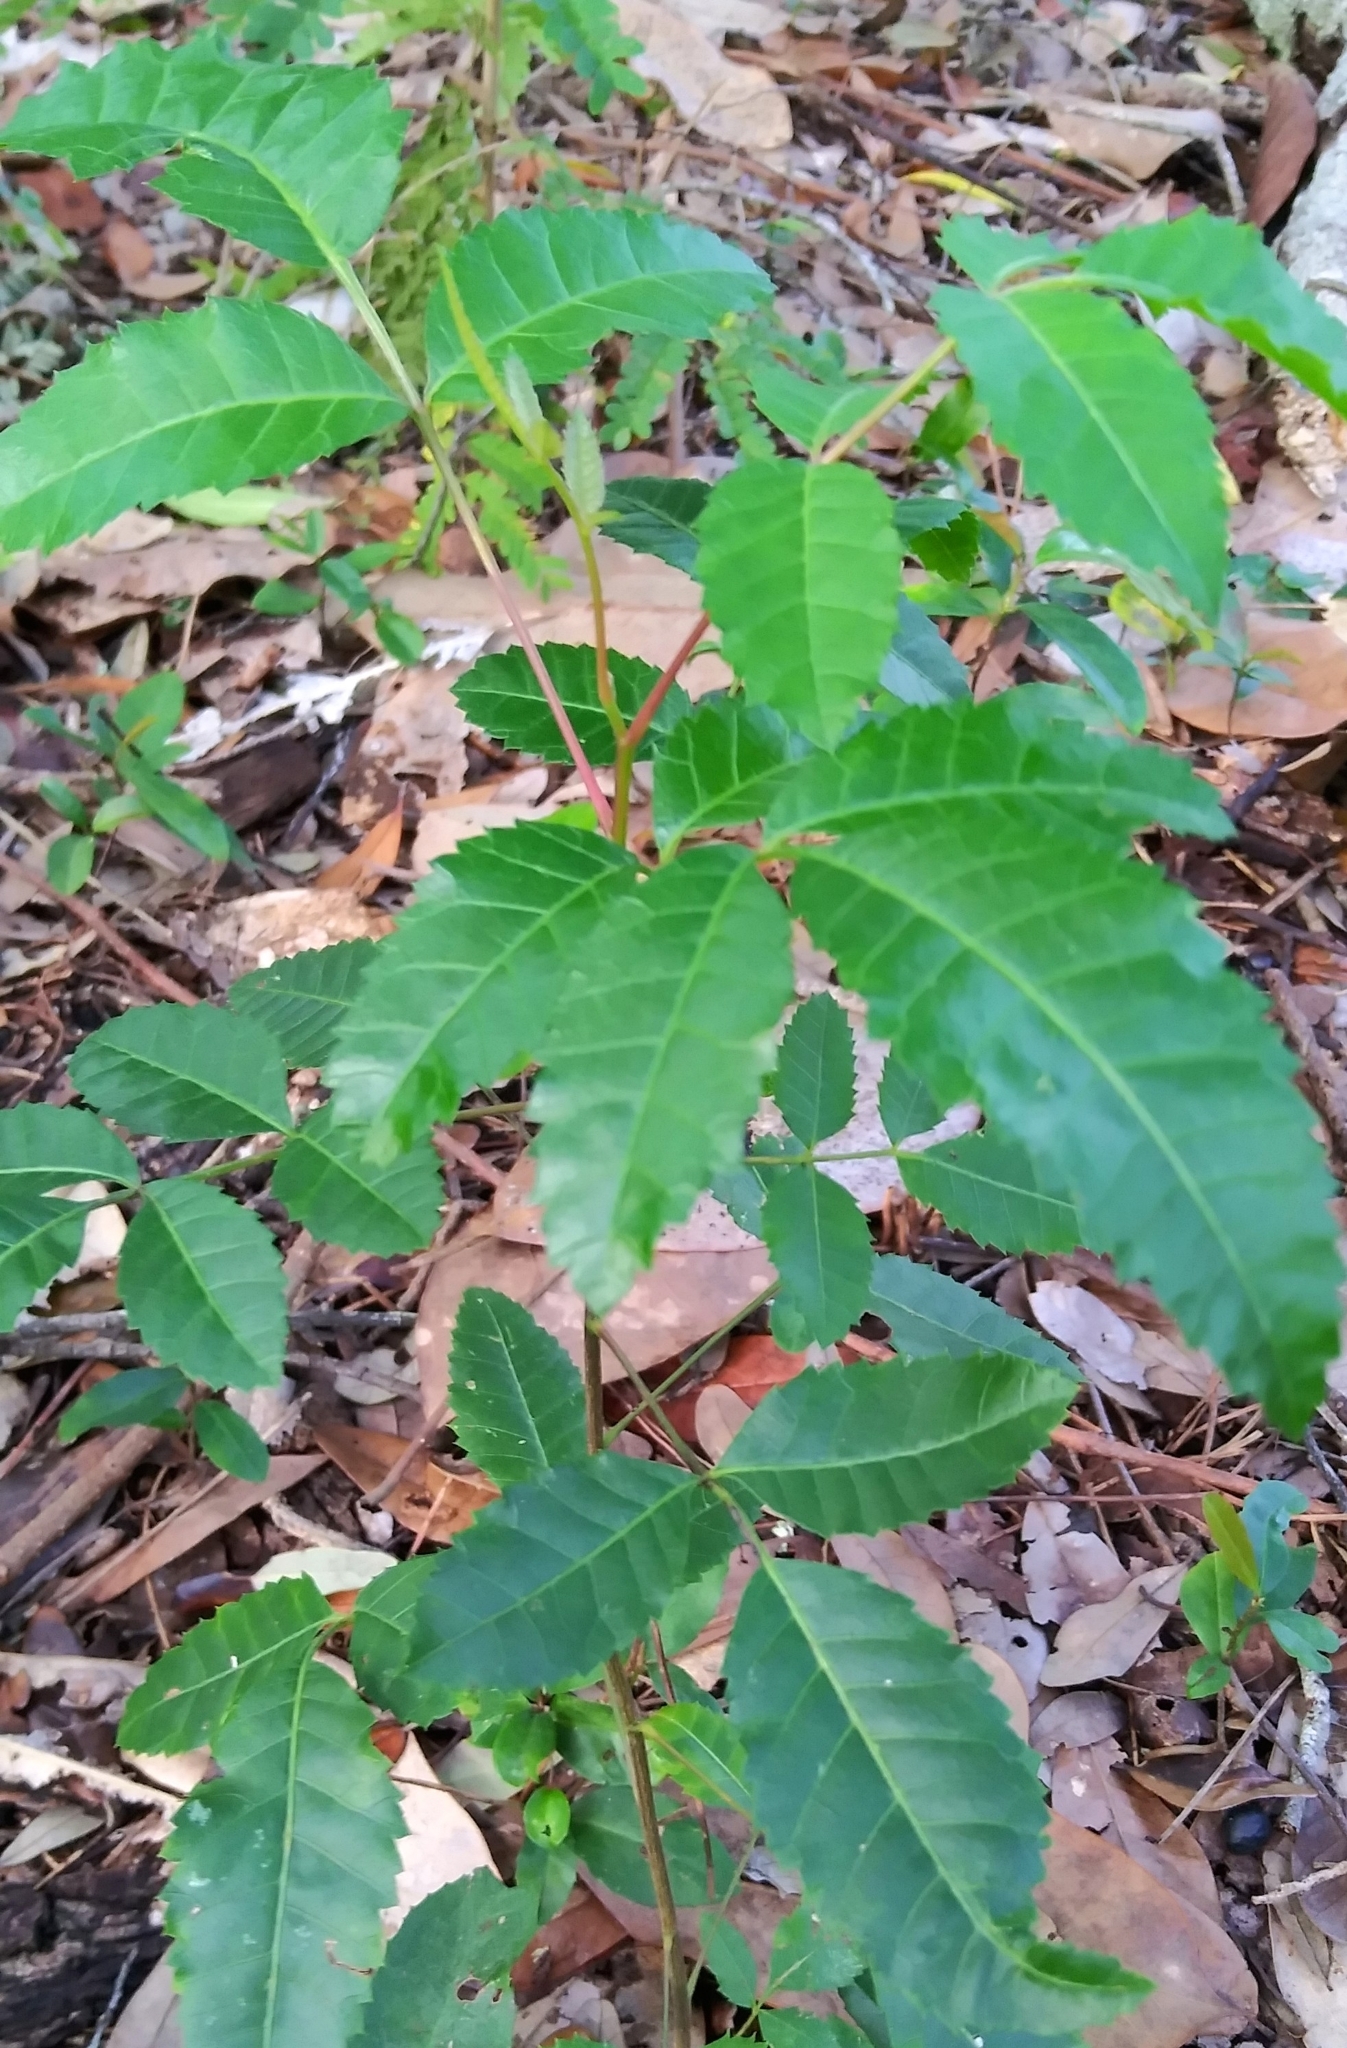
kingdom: Plantae
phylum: Tracheophyta
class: Magnoliopsida
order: Sapindales
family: Anacardiaceae
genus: Schinus
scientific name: Schinus terebinthifolia
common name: Brazilian peppertree
